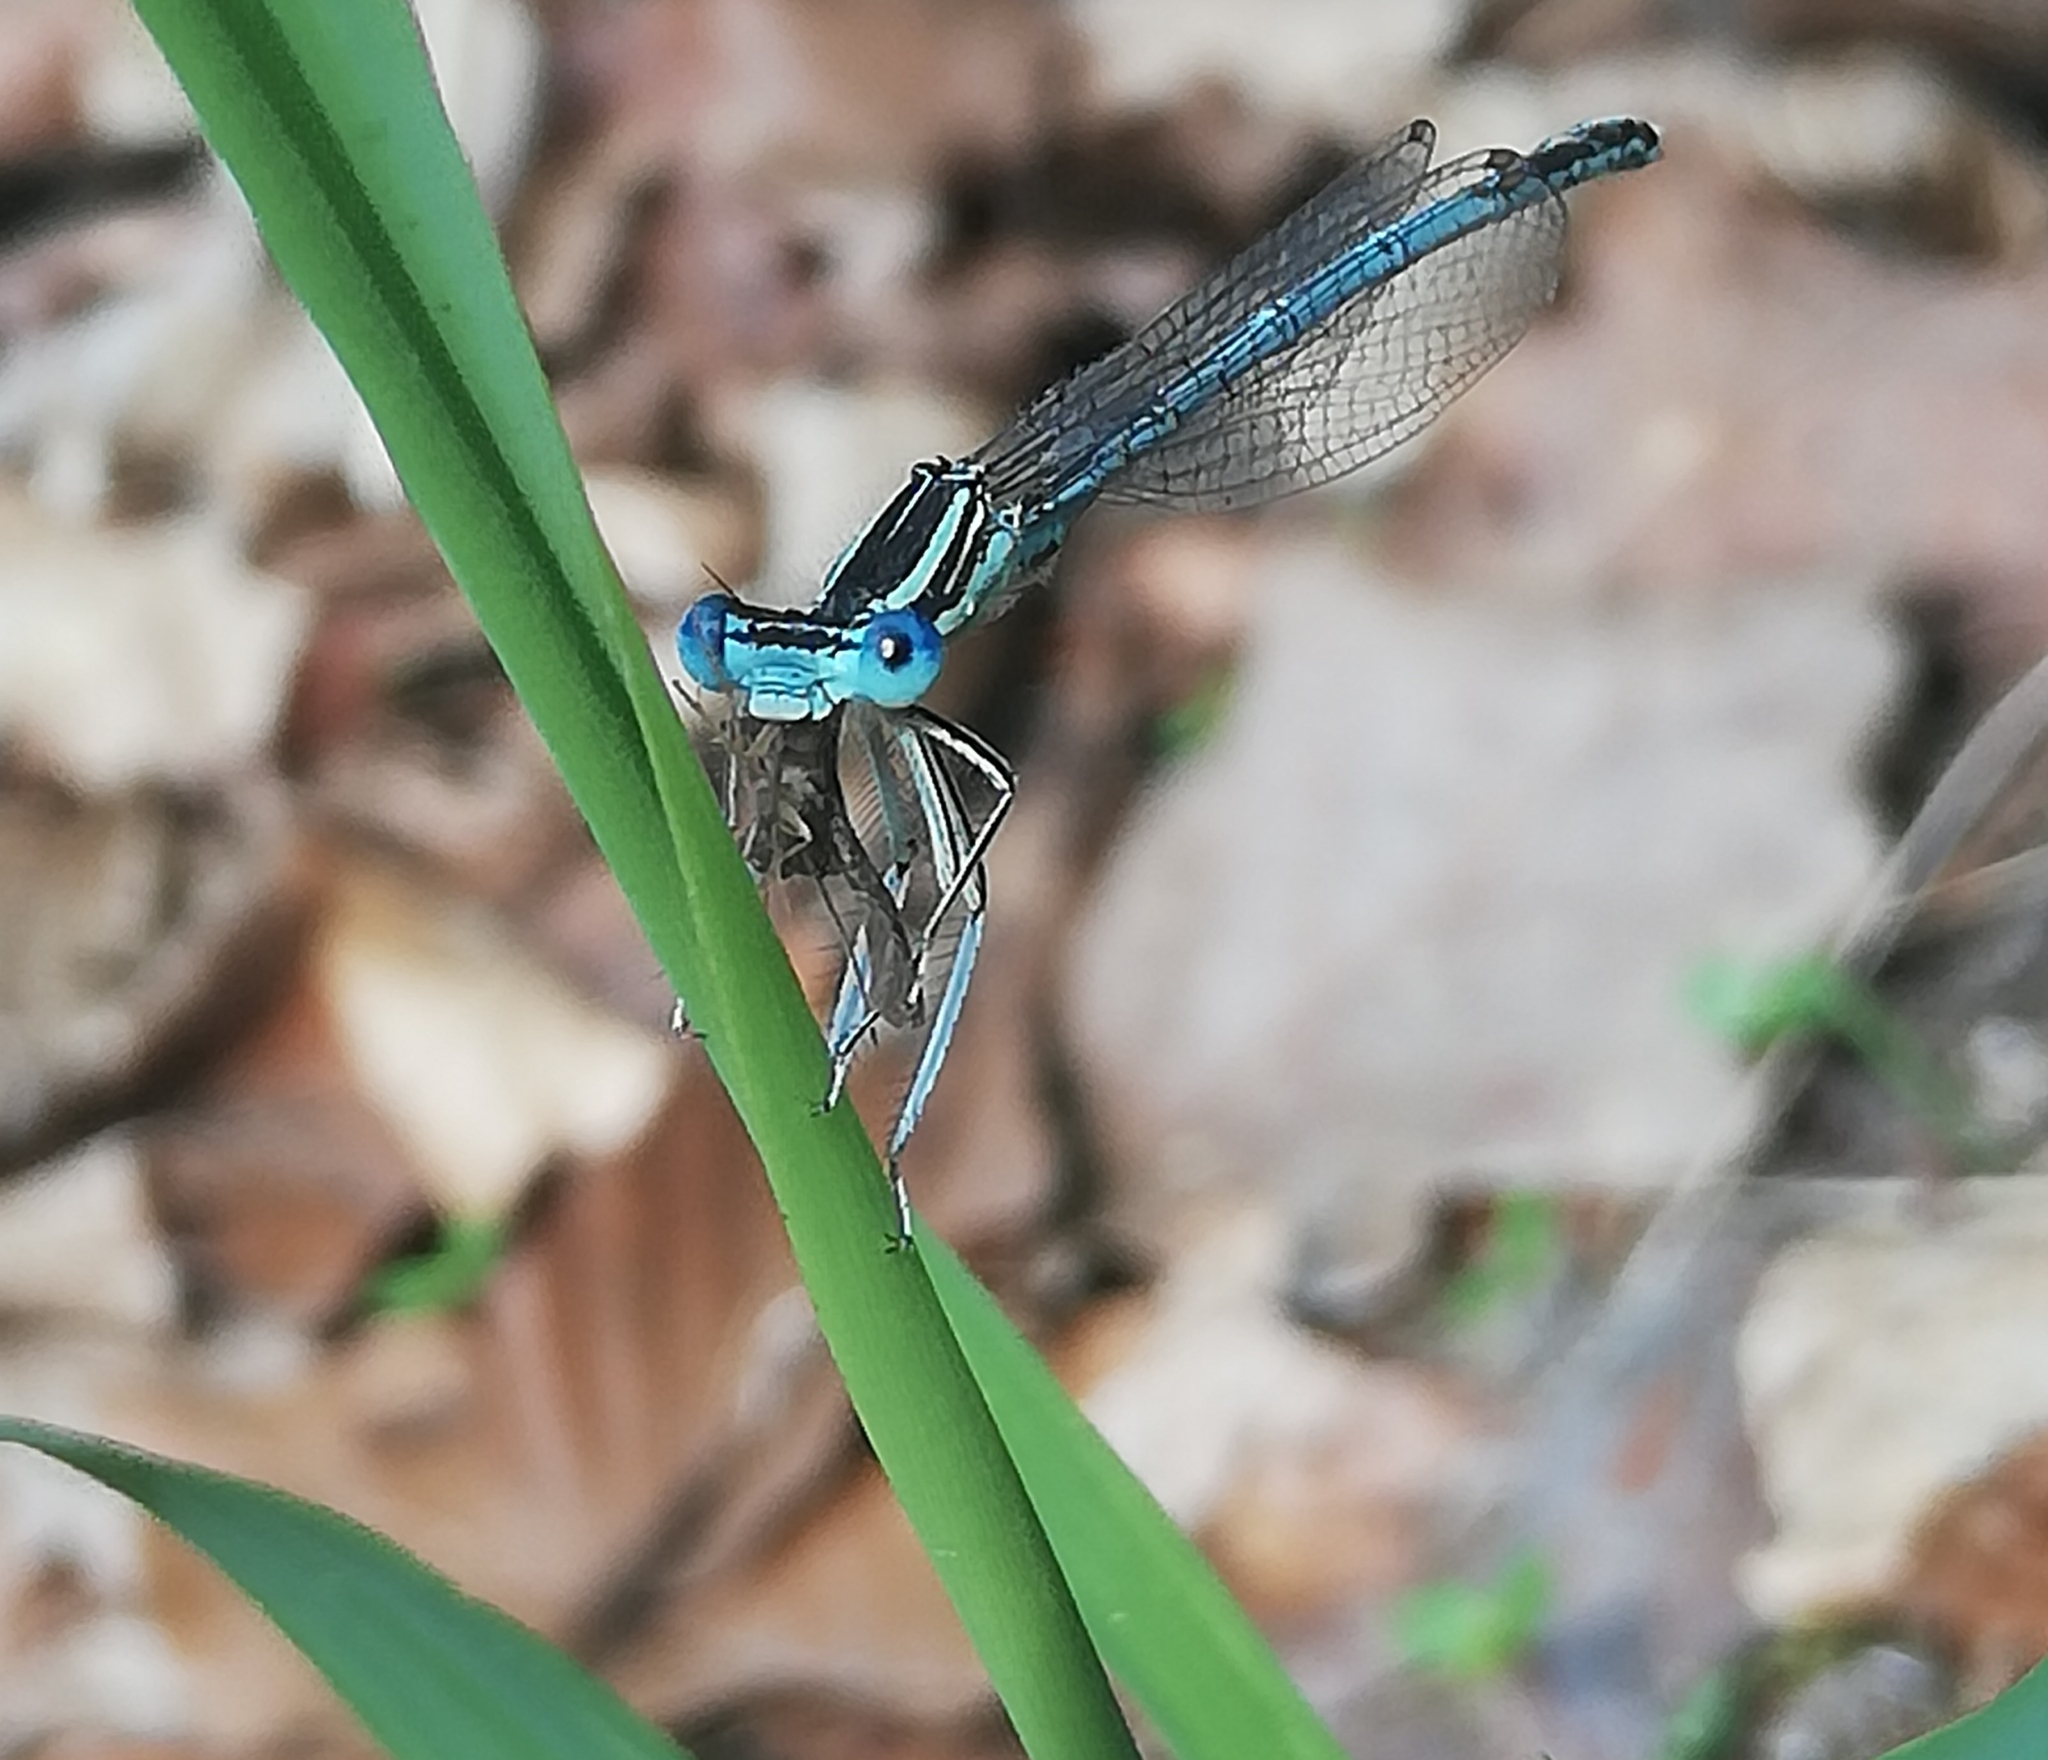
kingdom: Animalia
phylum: Arthropoda
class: Insecta
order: Odonata
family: Platycnemididae
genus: Platycnemis
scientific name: Platycnemis pennipes
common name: White-legged damselfly
